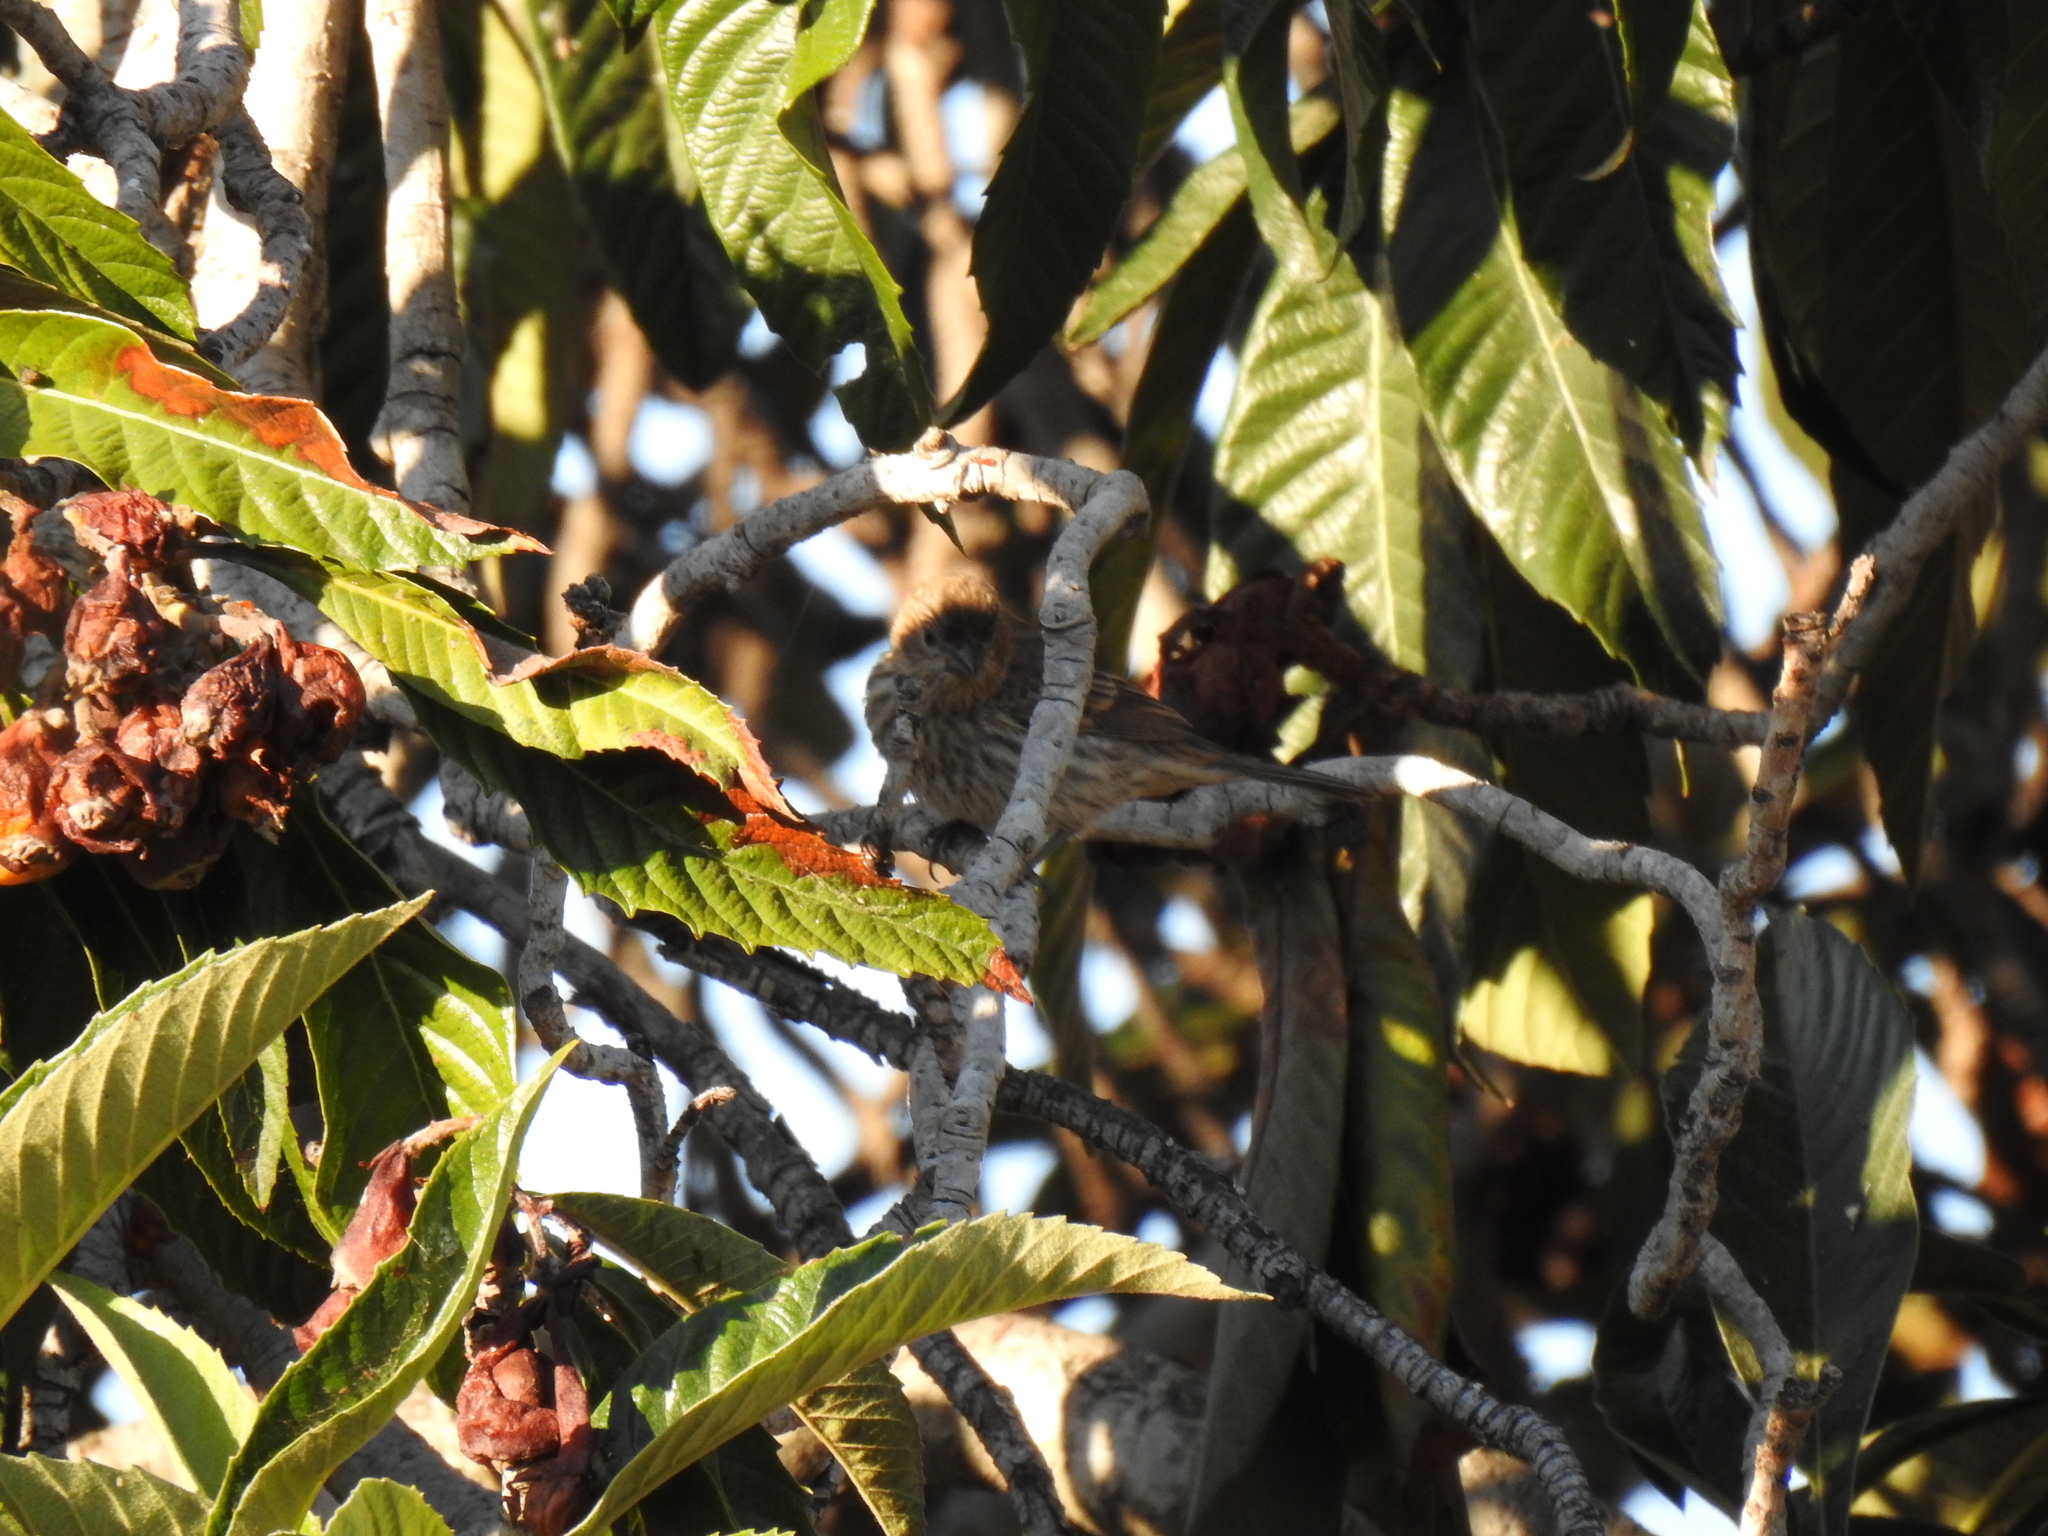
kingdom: Animalia
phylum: Chordata
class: Aves
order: Passeriformes
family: Fringillidae
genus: Haemorhous
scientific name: Haemorhous mexicanus
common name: House finch
